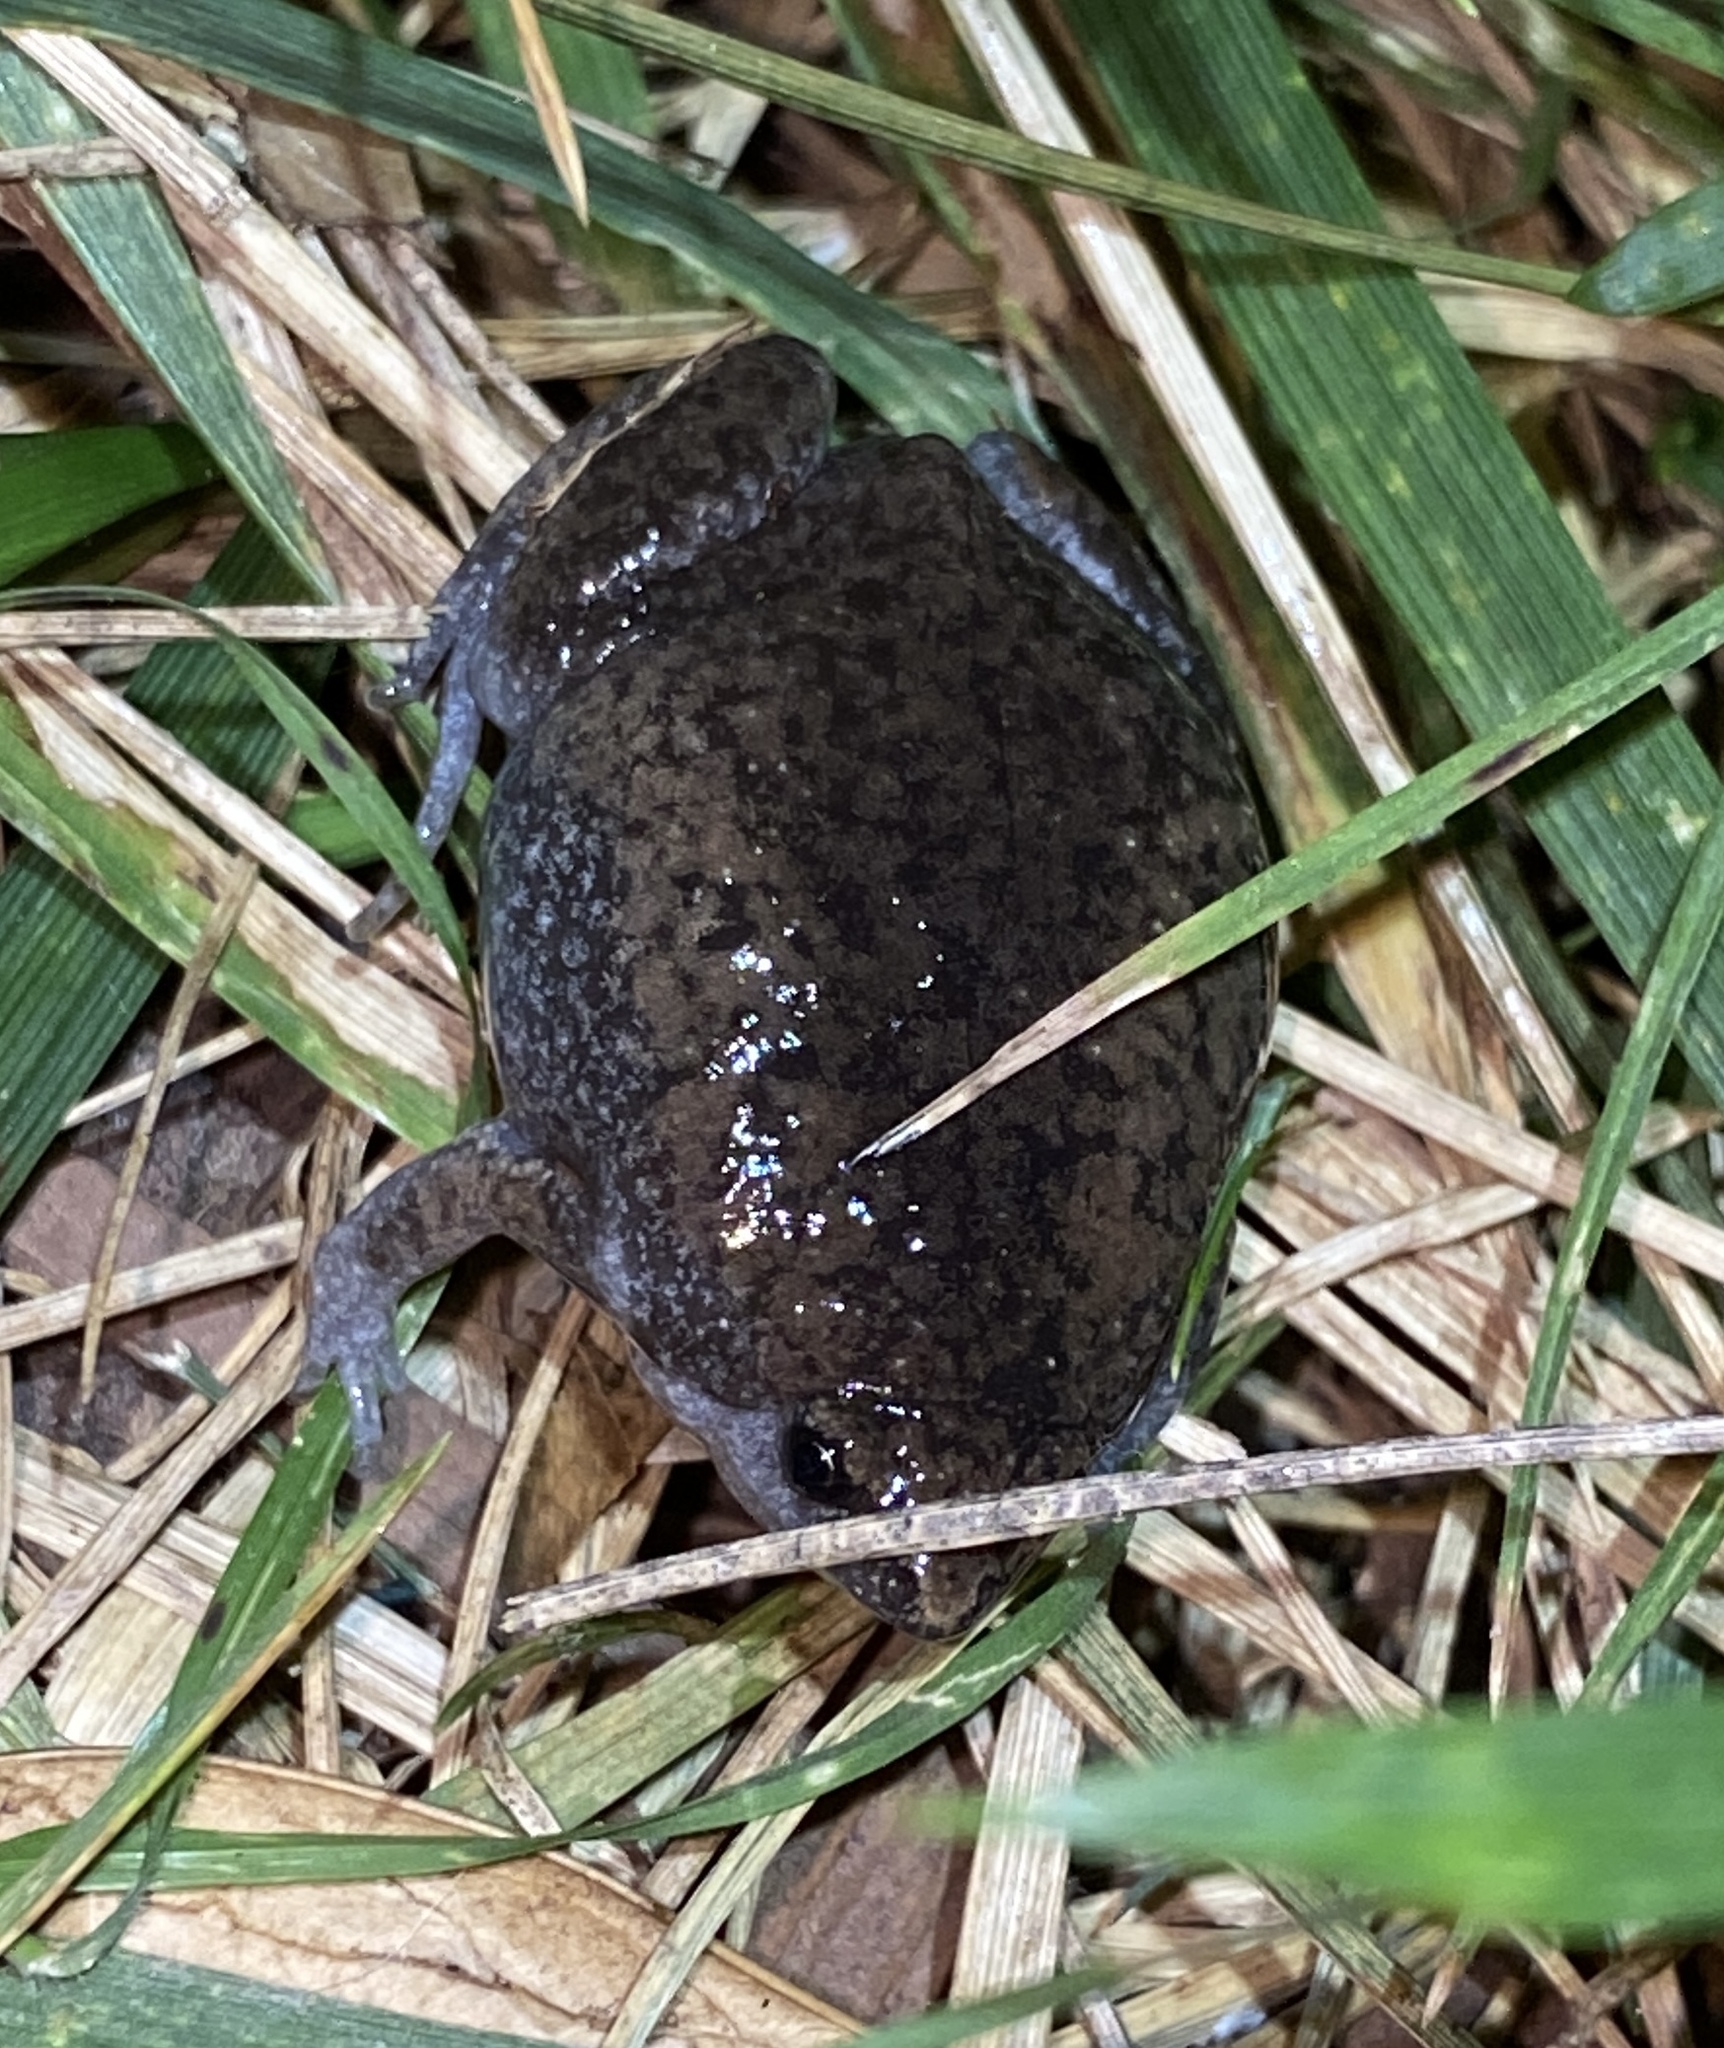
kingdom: Animalia
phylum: Chordata
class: Amphibia
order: Anura
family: Microhylidae
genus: Gastrophryne
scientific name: Gastrophryne carolinensis
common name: Eastern narrowmouth toad
